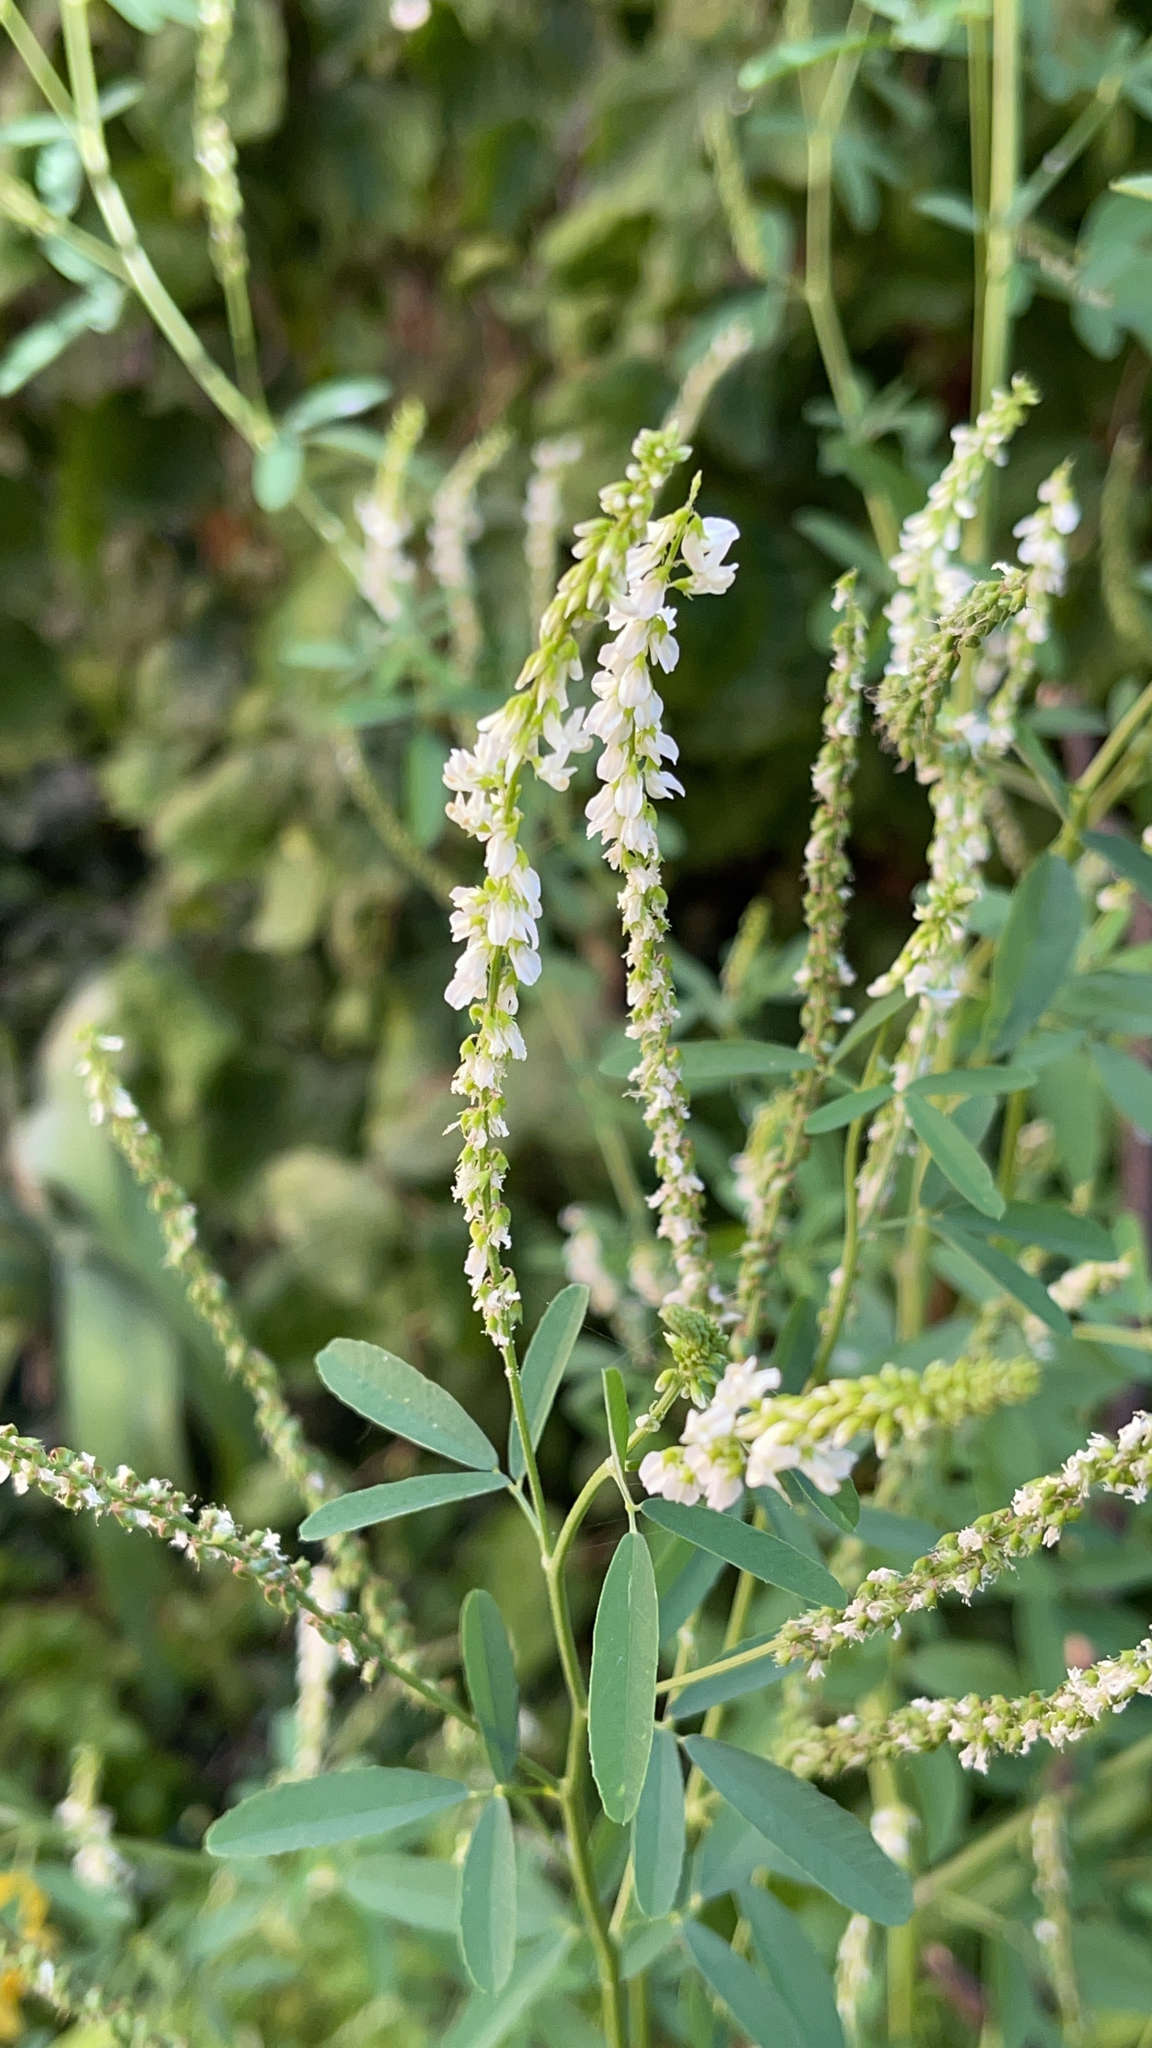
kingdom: Plantae
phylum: Tracheophyta
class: Magnoliopsida
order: Fabales
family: Fabaceae
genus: Melilotus
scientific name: Melilotus albus
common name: White melilot
